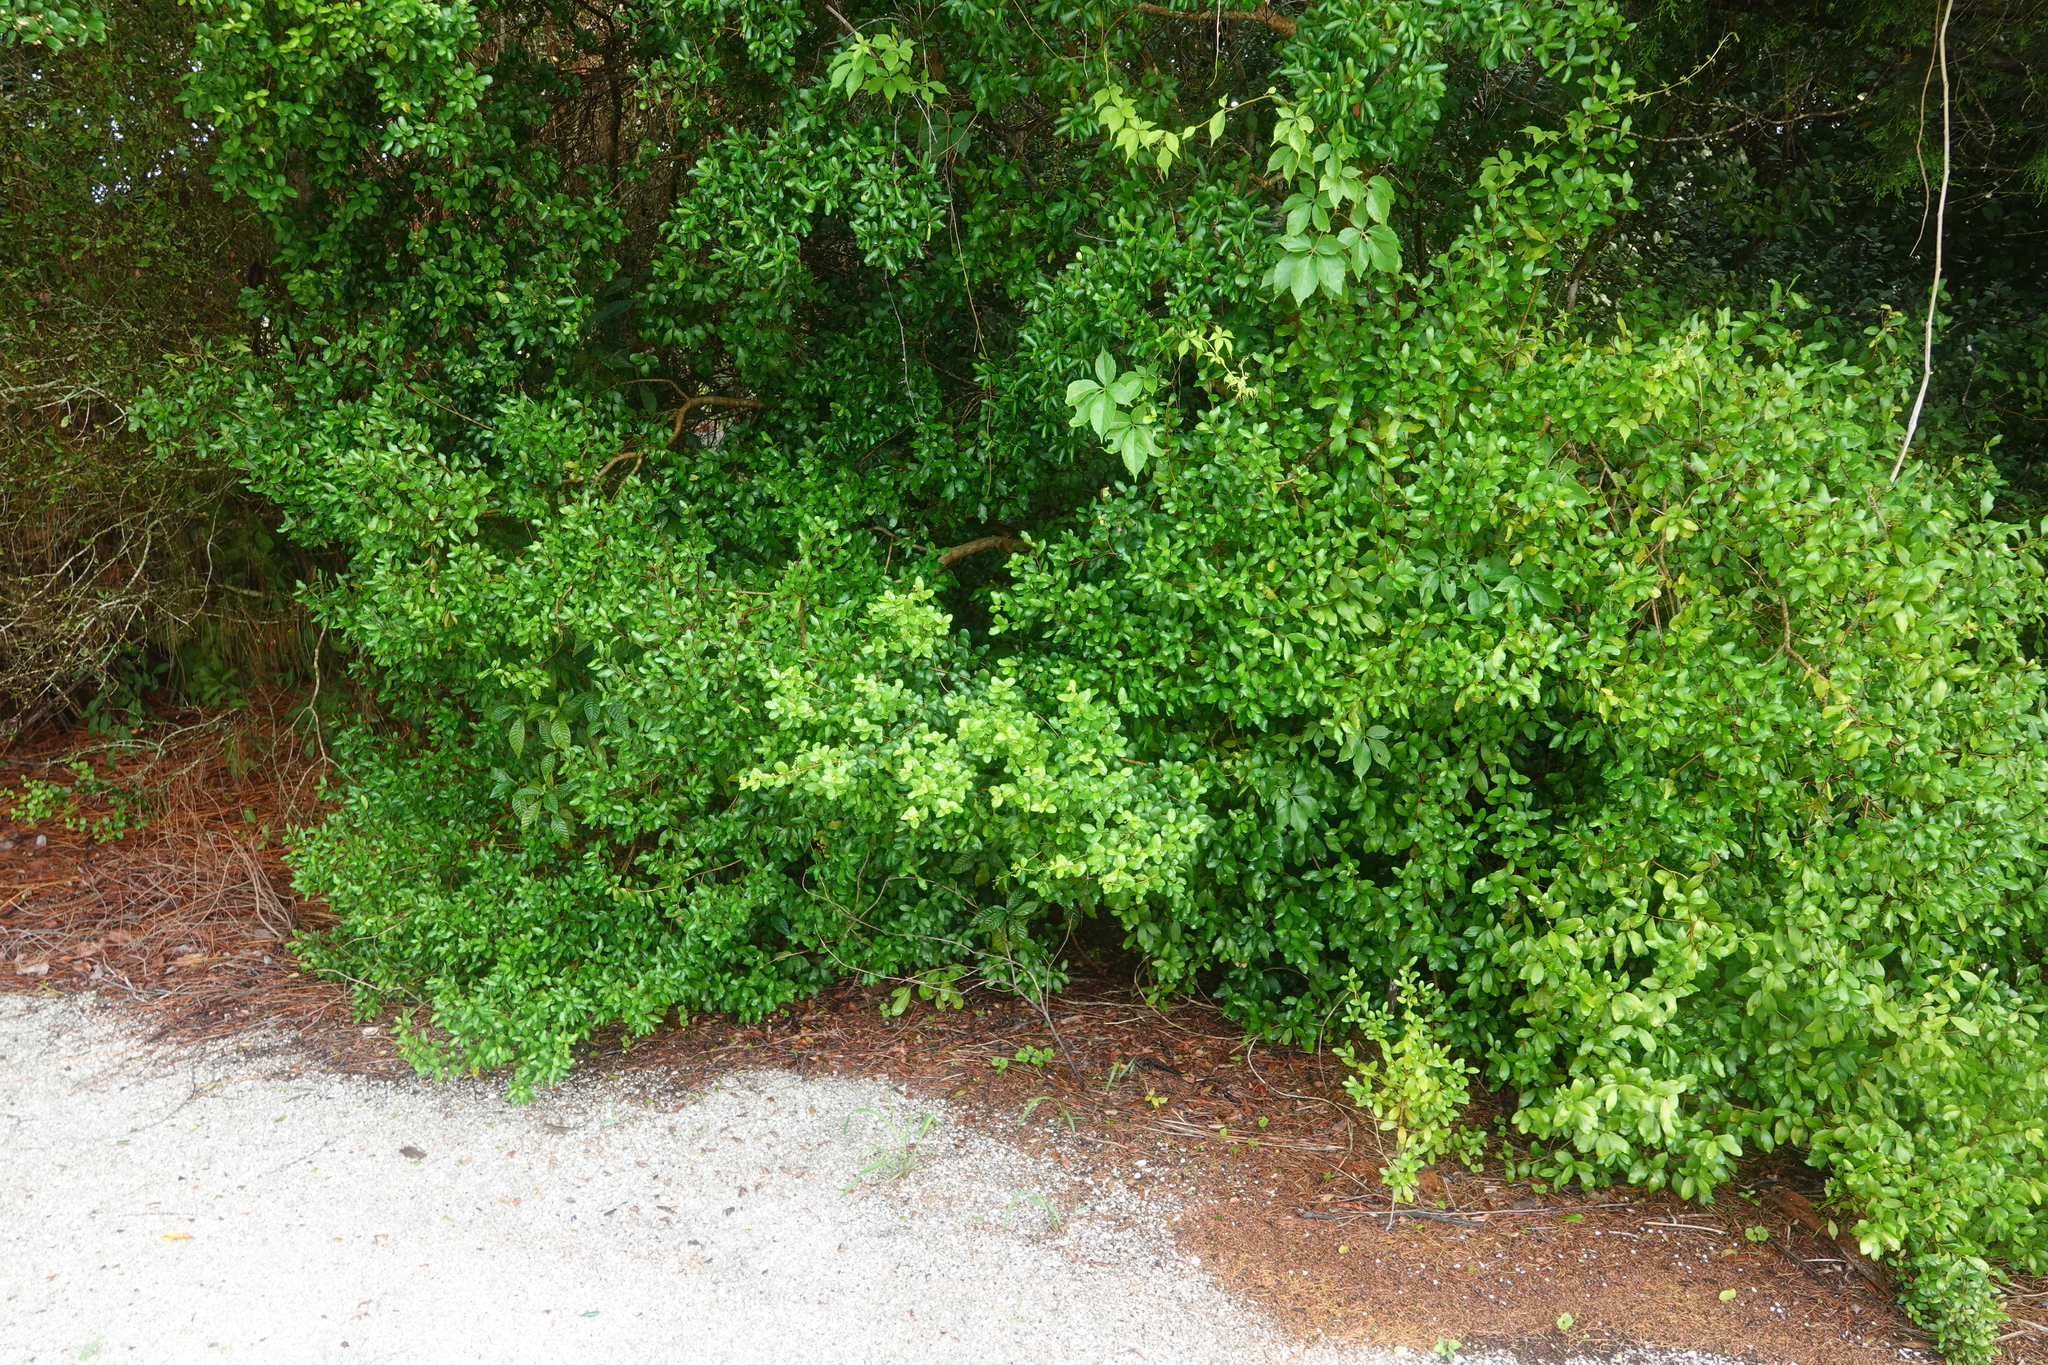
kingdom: Plantae
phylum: Tracheophyta
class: Magnoliopsida
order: Solanales
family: Convolvulaceae
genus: Ipomoea
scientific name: Ipomoea indica
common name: Blue dawnflower
